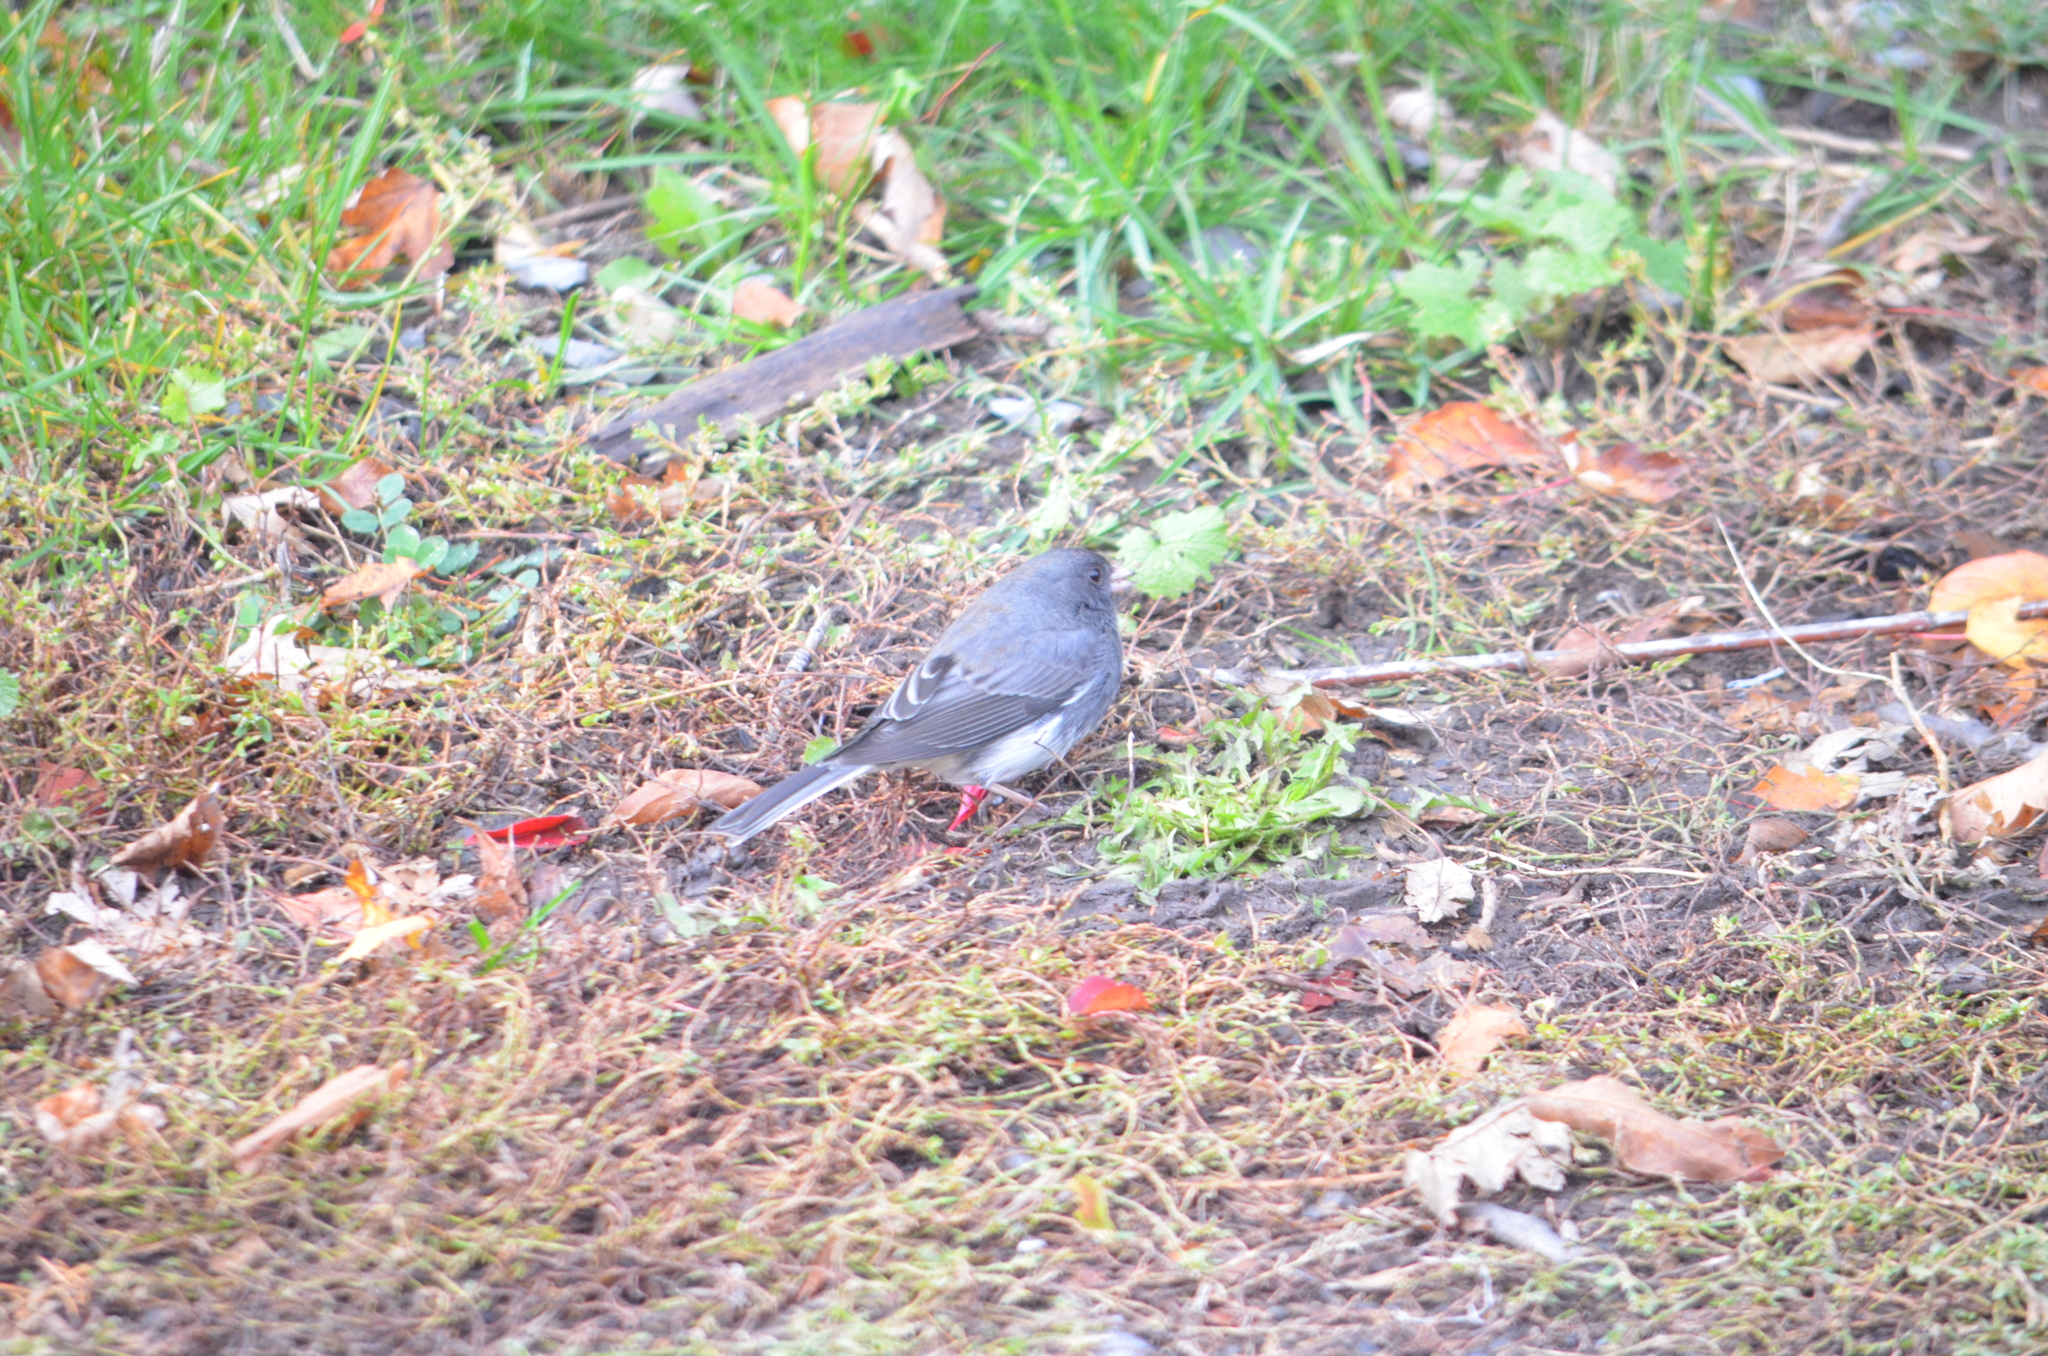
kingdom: Animalia
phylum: Chordata
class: Aves
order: Passeriformes
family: Passerellidae
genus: Junco
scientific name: Junco hyemalis
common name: Dark-eyed junco
